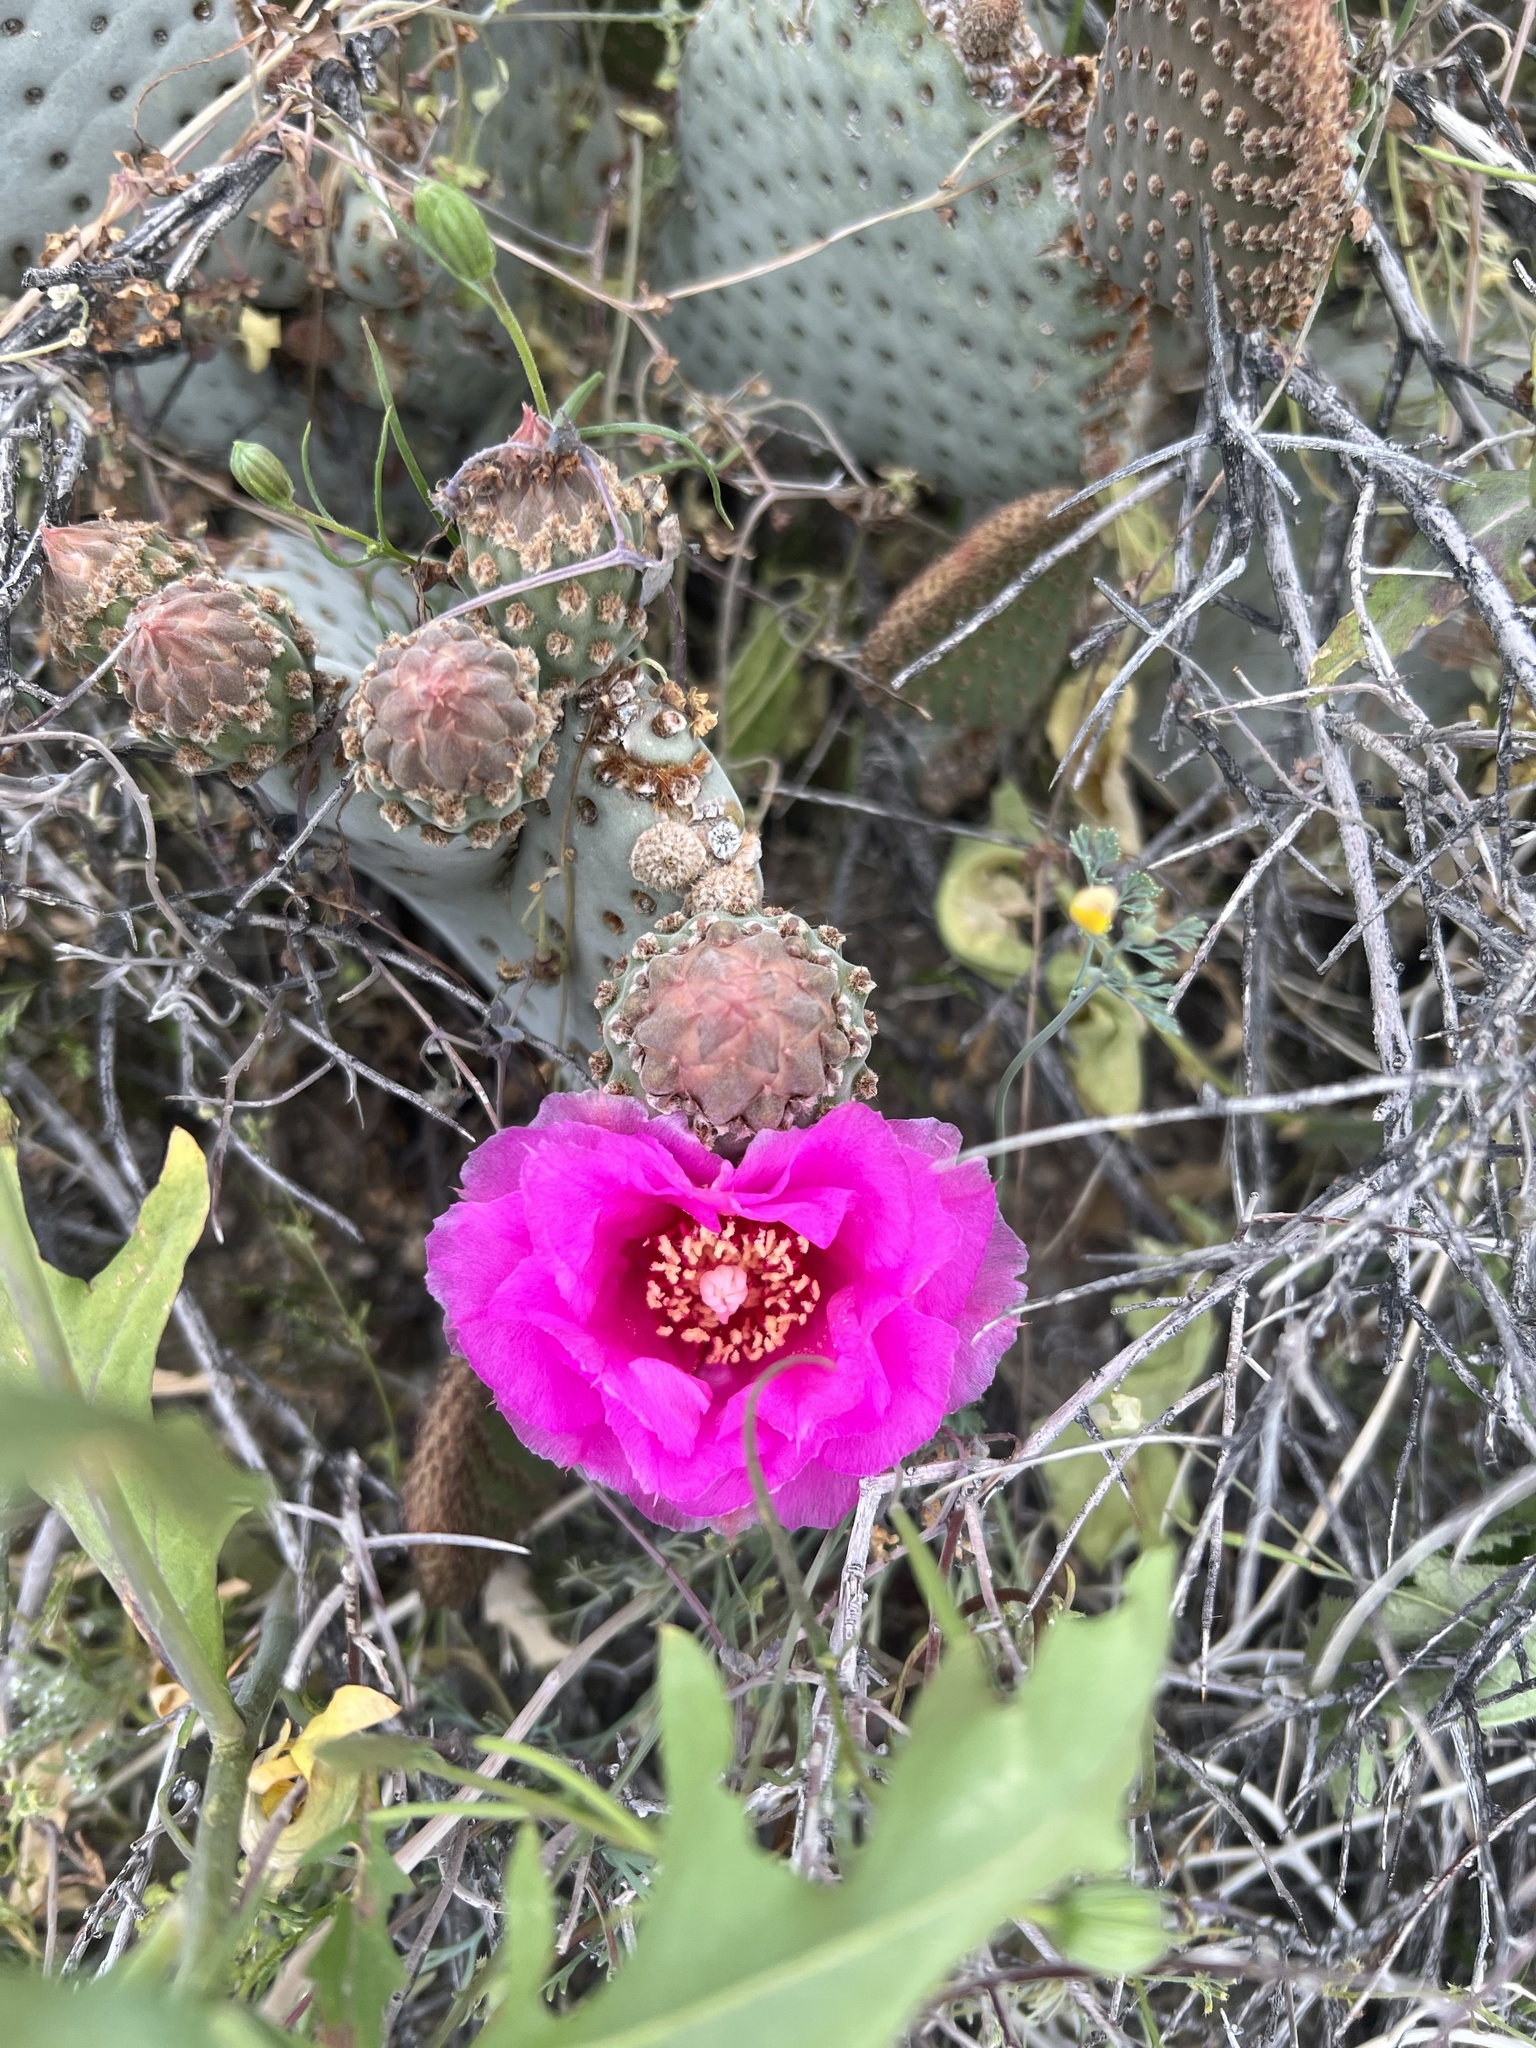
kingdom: Plantae
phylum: Tracheophyta
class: Magnoliopsida
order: Caryophyllales
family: Cactaceae
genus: Opuntia
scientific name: Opuntia basilaris
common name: Beavertail prickly-pear
